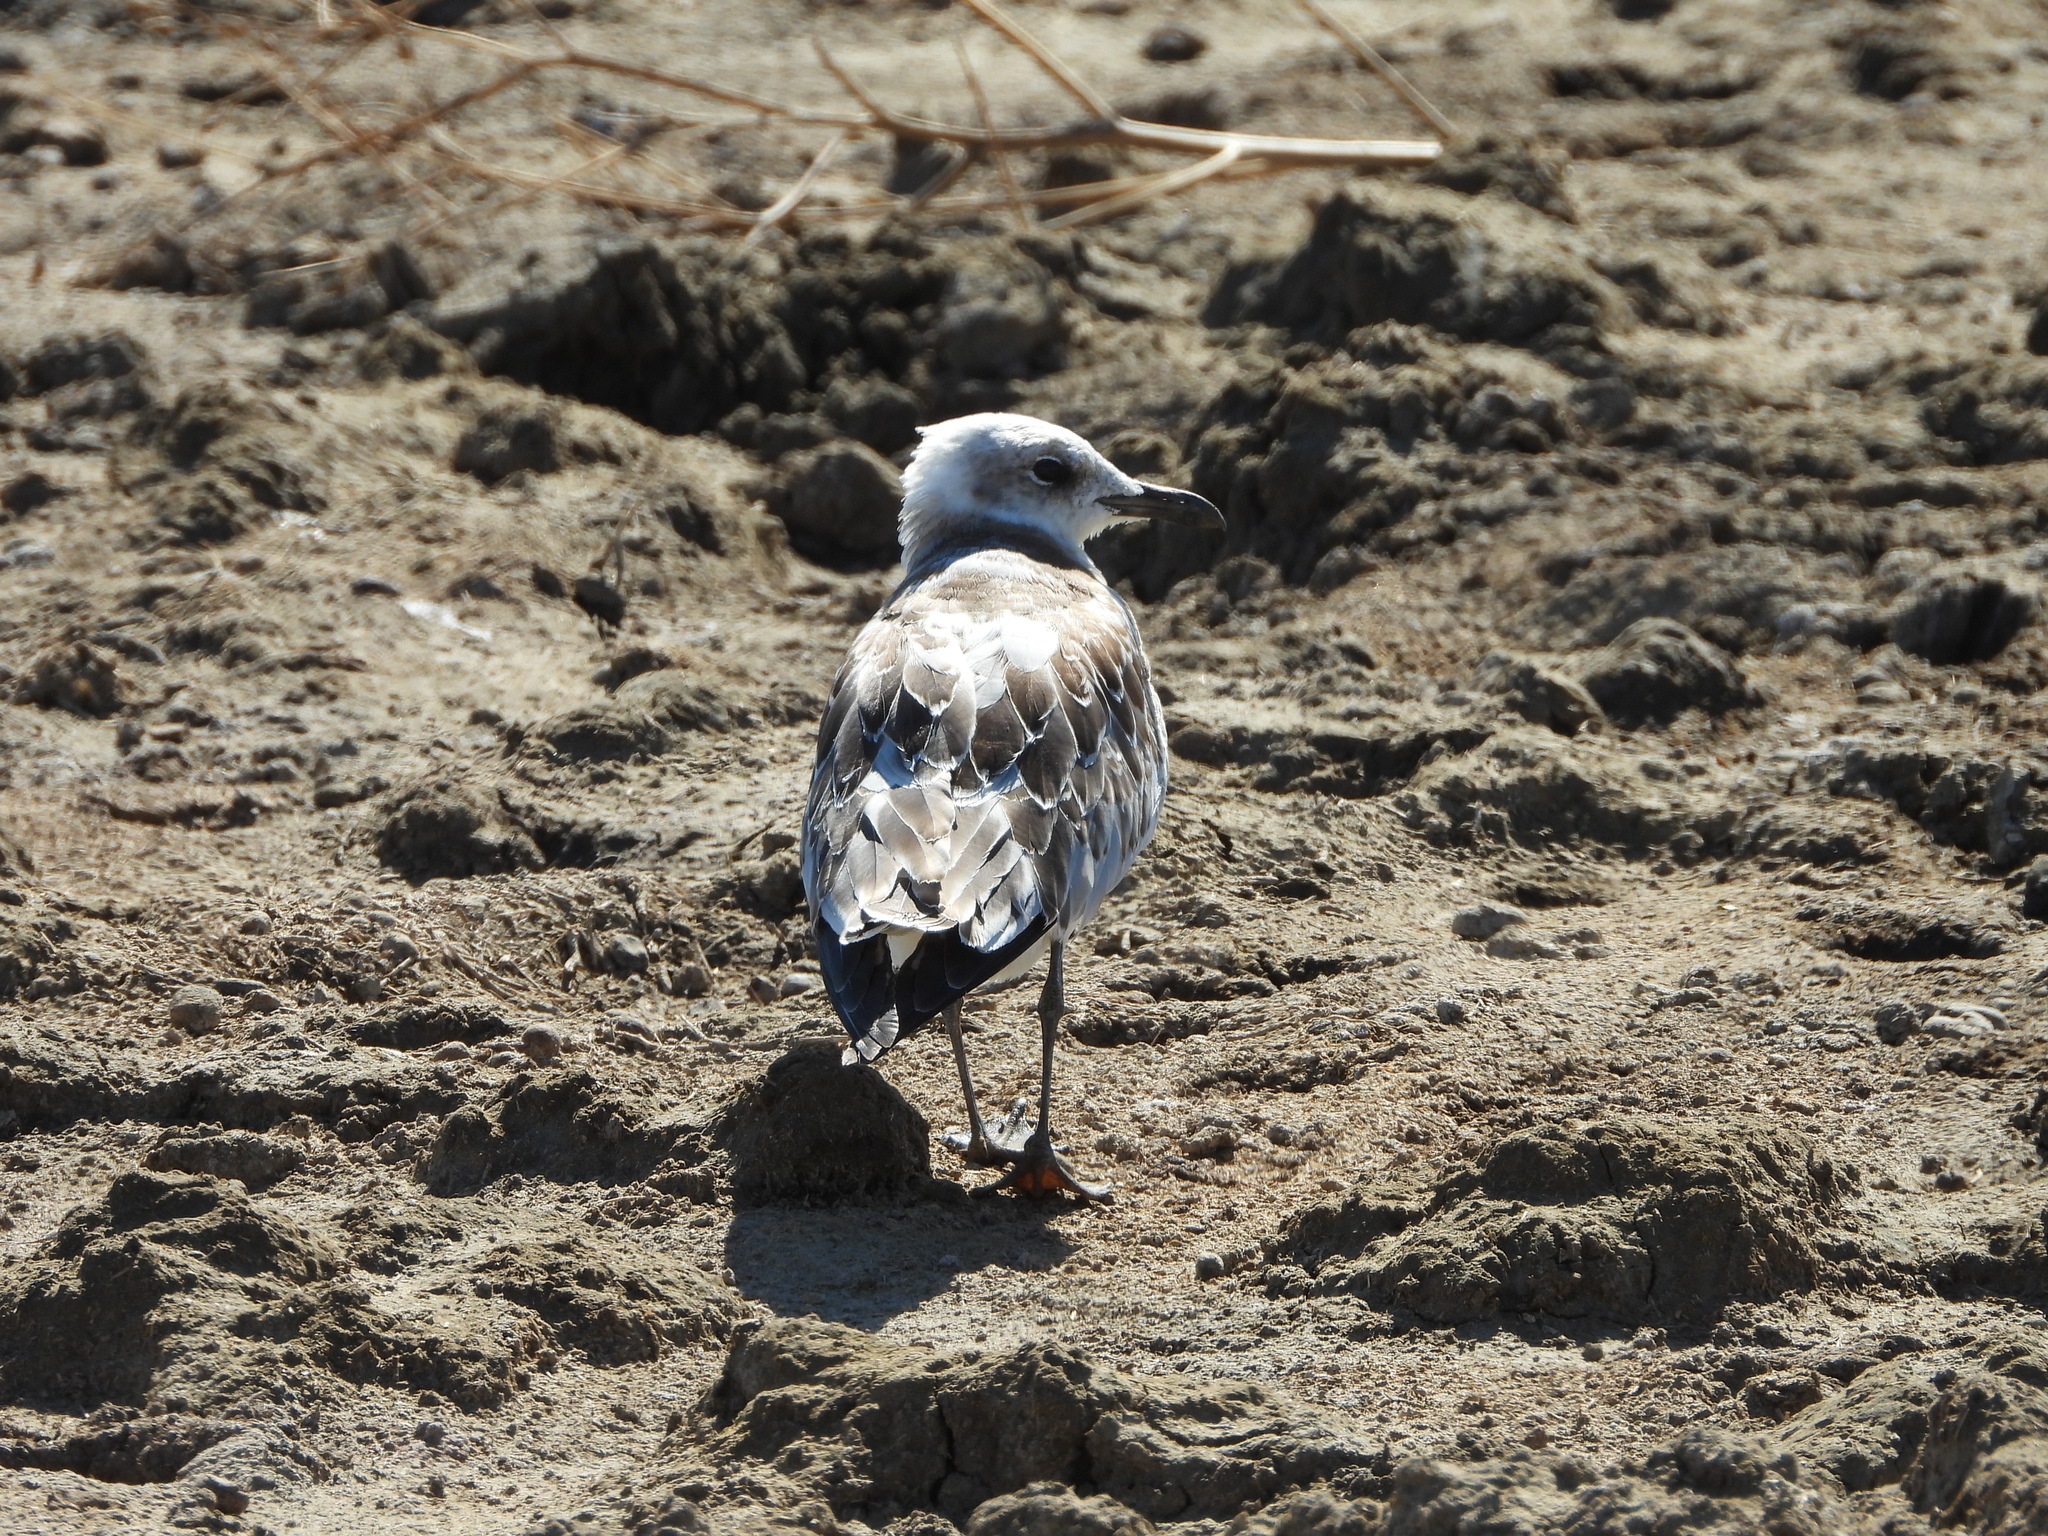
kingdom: Animalia
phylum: Chordata
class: Aves
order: Charadriiformes
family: Laridae
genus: Ichthyaetus
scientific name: Ichthyaetus melanocephalus
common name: Mediterranean gull
